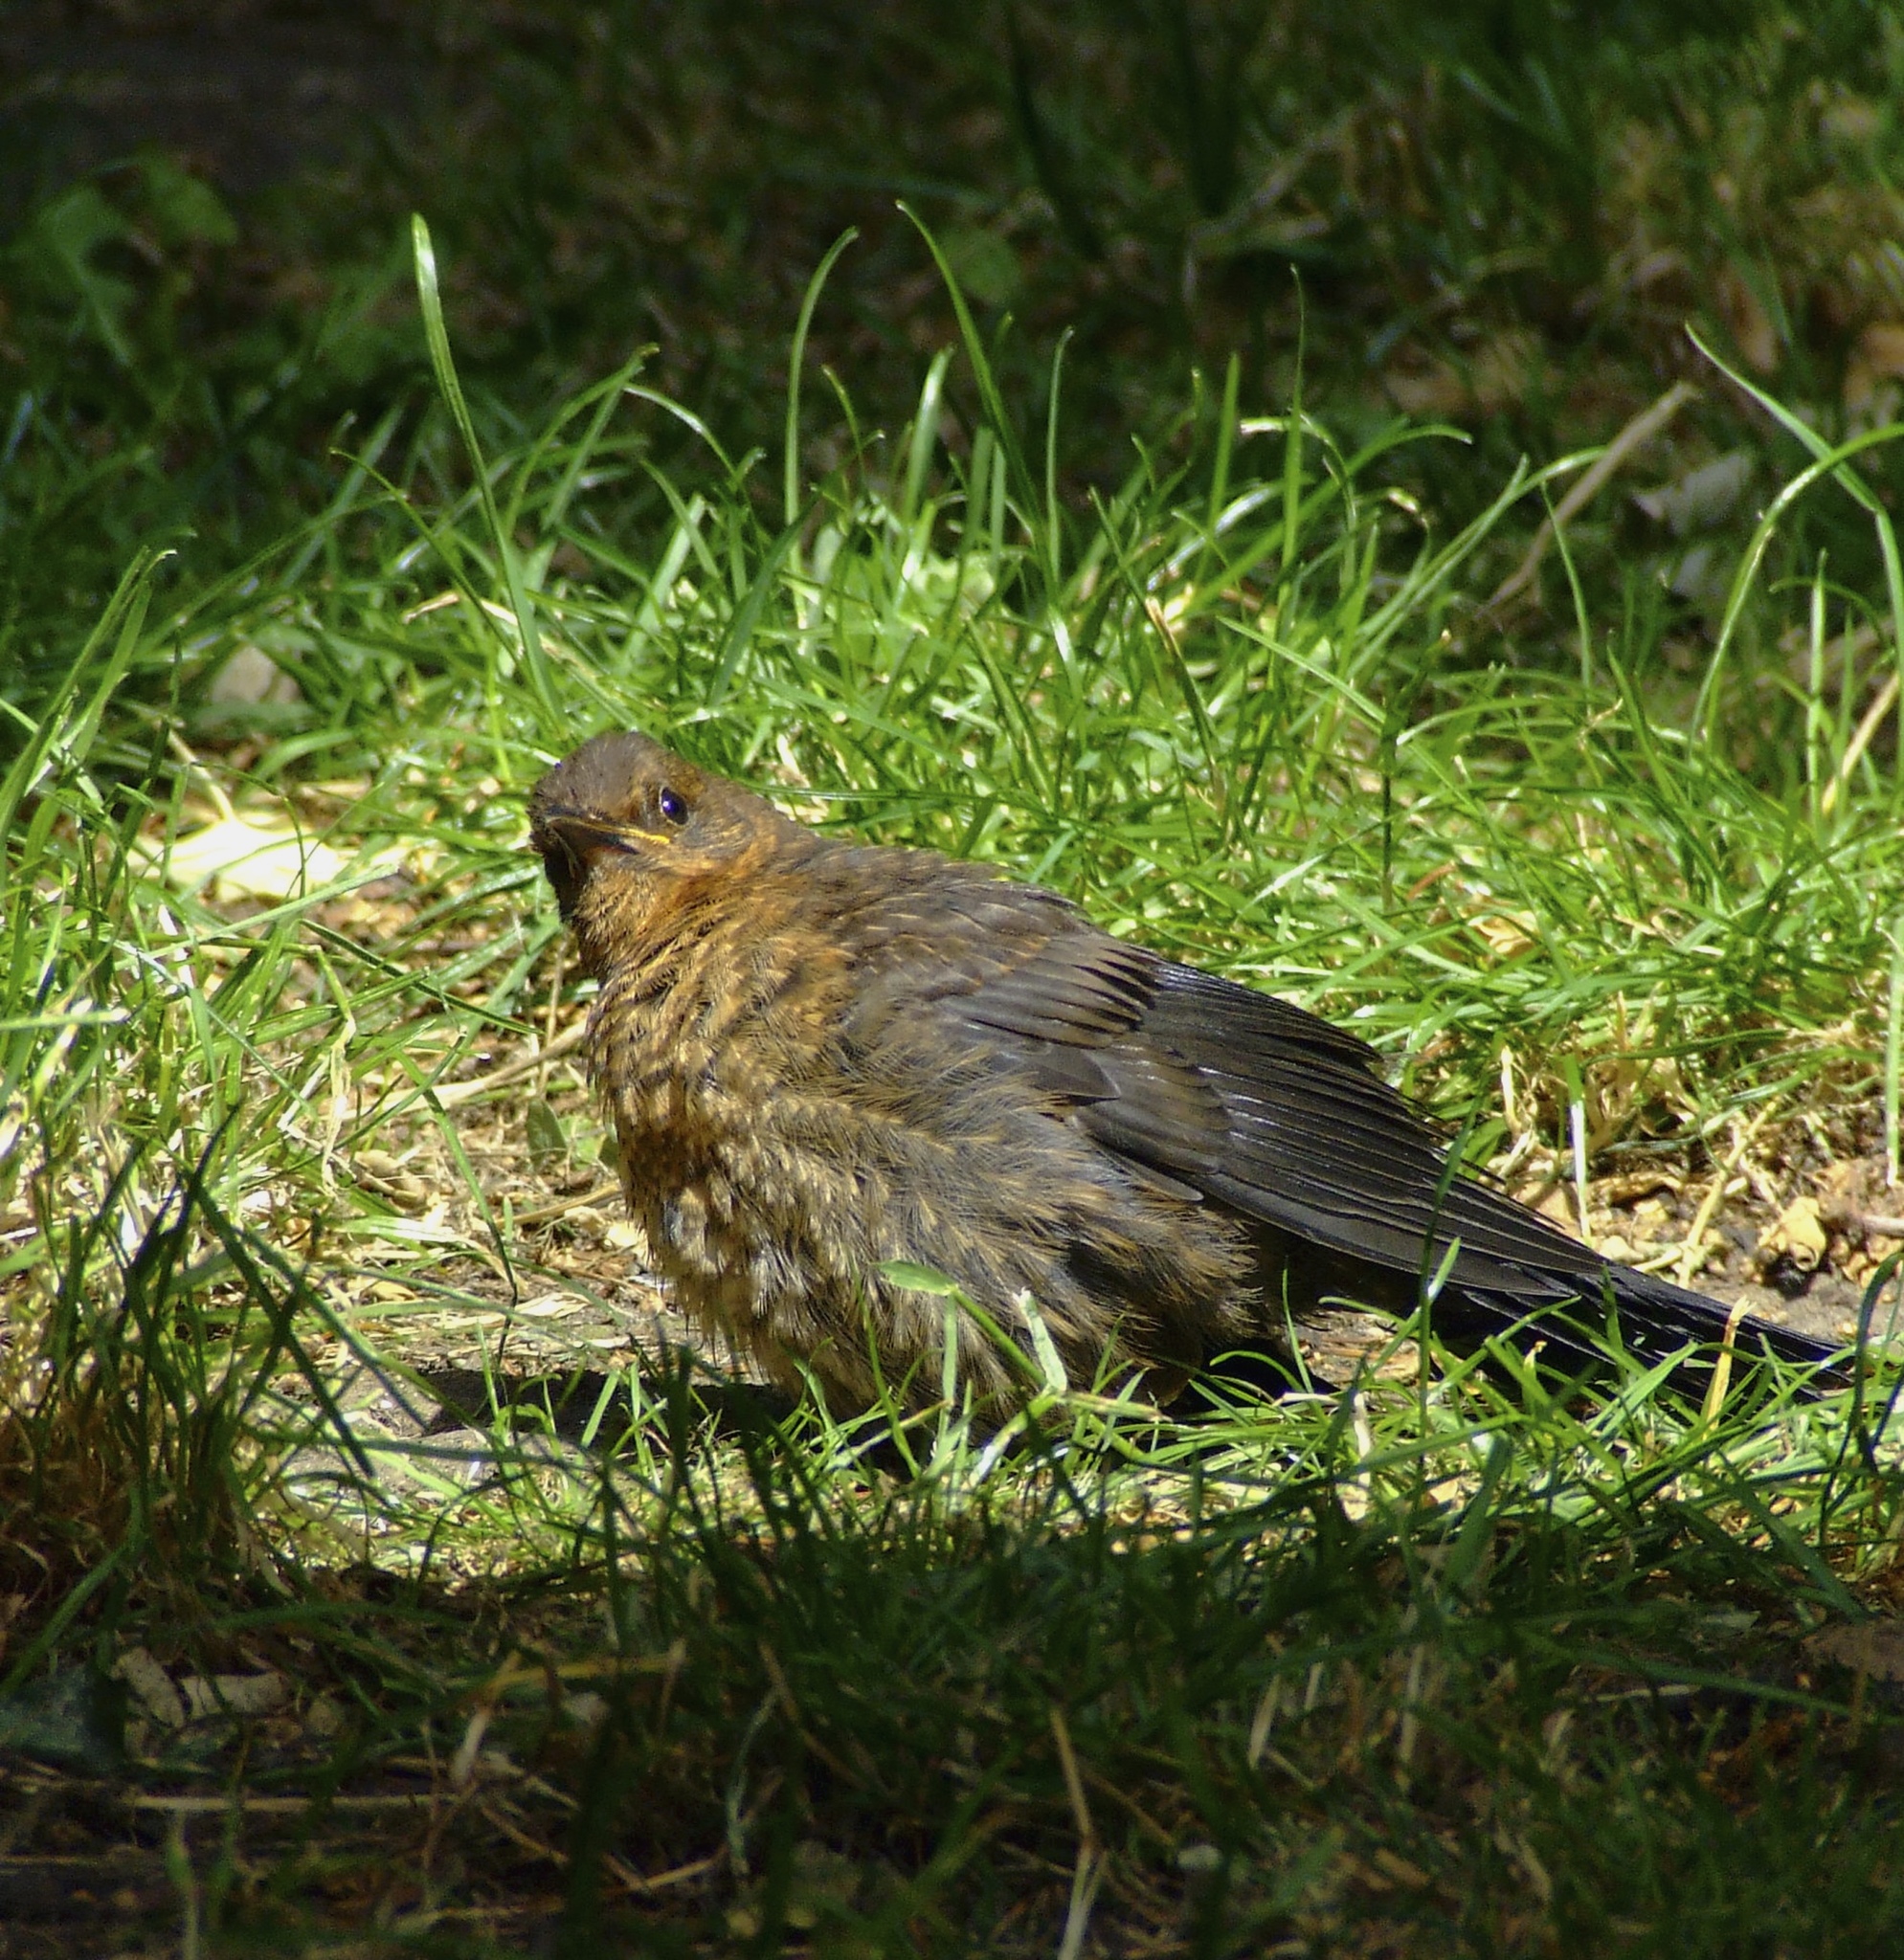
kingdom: Animalia
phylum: Chordata
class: Aves
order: Passeriformes
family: Turdidae
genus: Turdus
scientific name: Turdus merula
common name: Common blackbird
